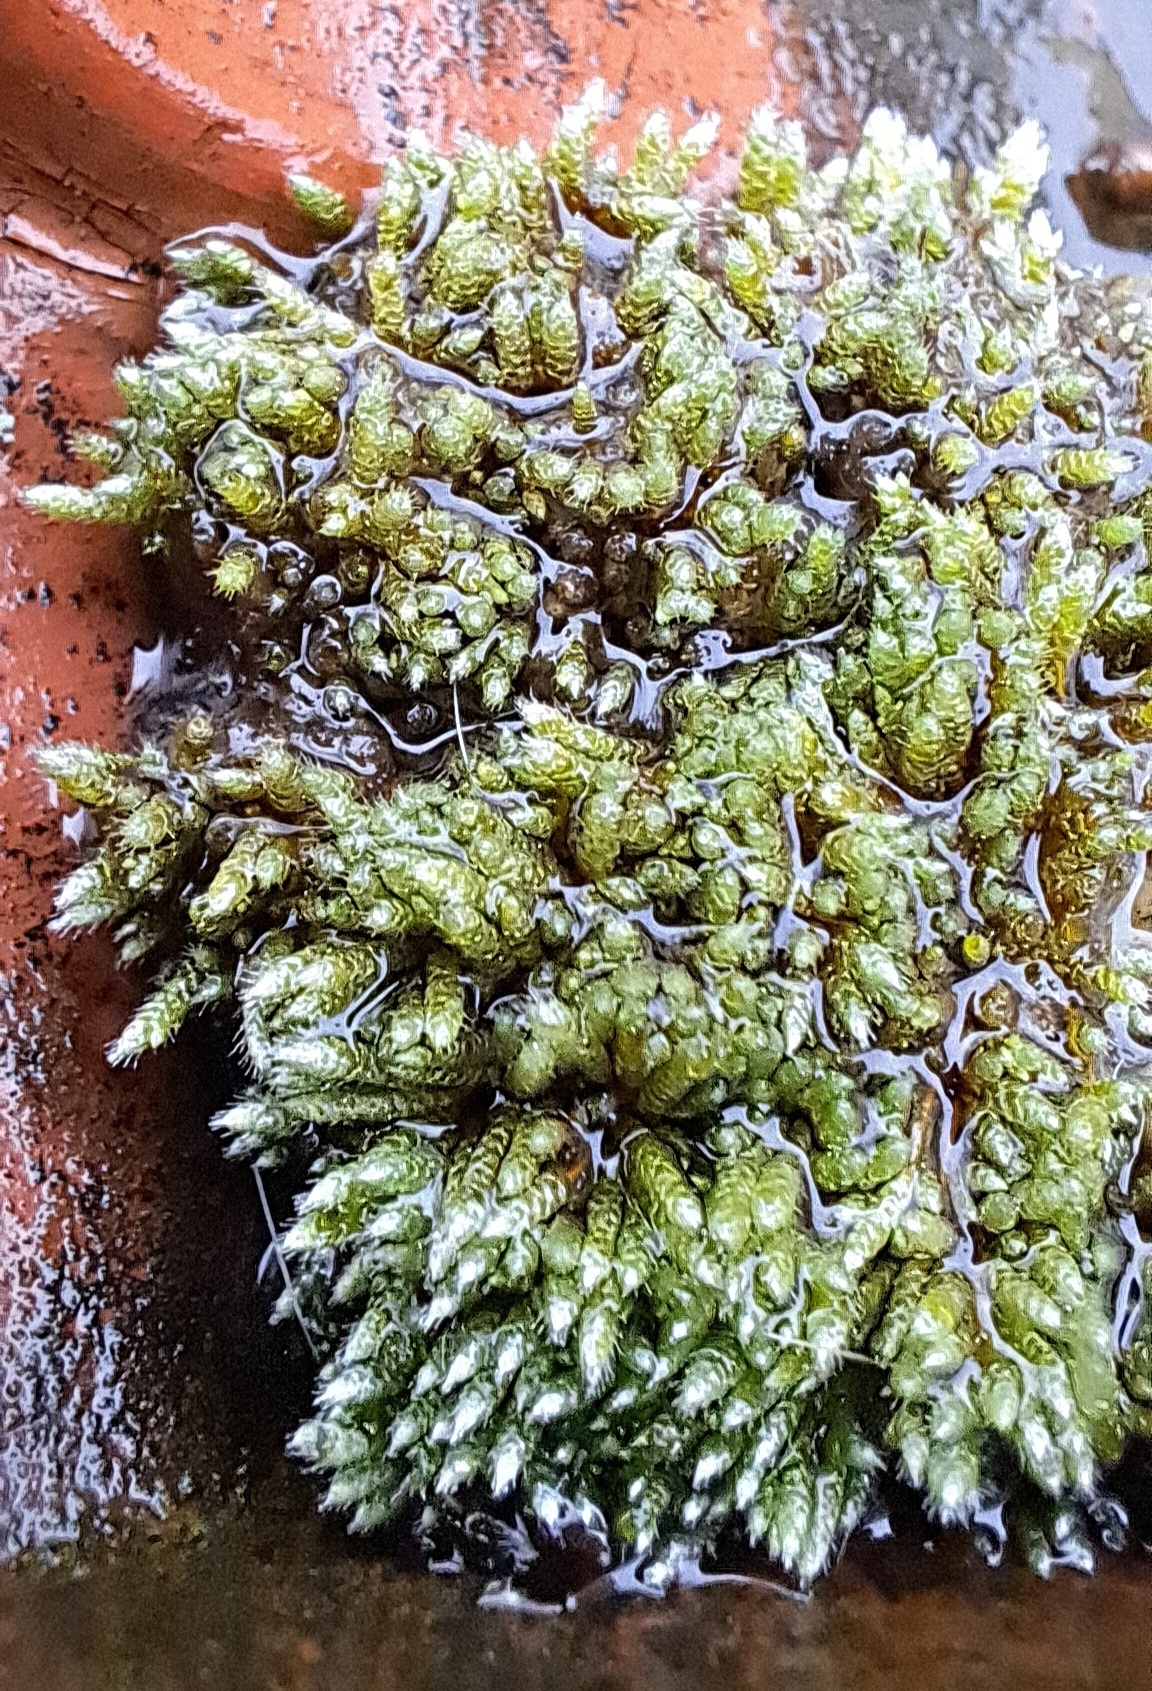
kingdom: Plantae
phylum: Bryophyta
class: Bryopsida
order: Bryales
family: Bryaceae
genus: Bryum
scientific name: Bryum argenteum
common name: Silver-moss
